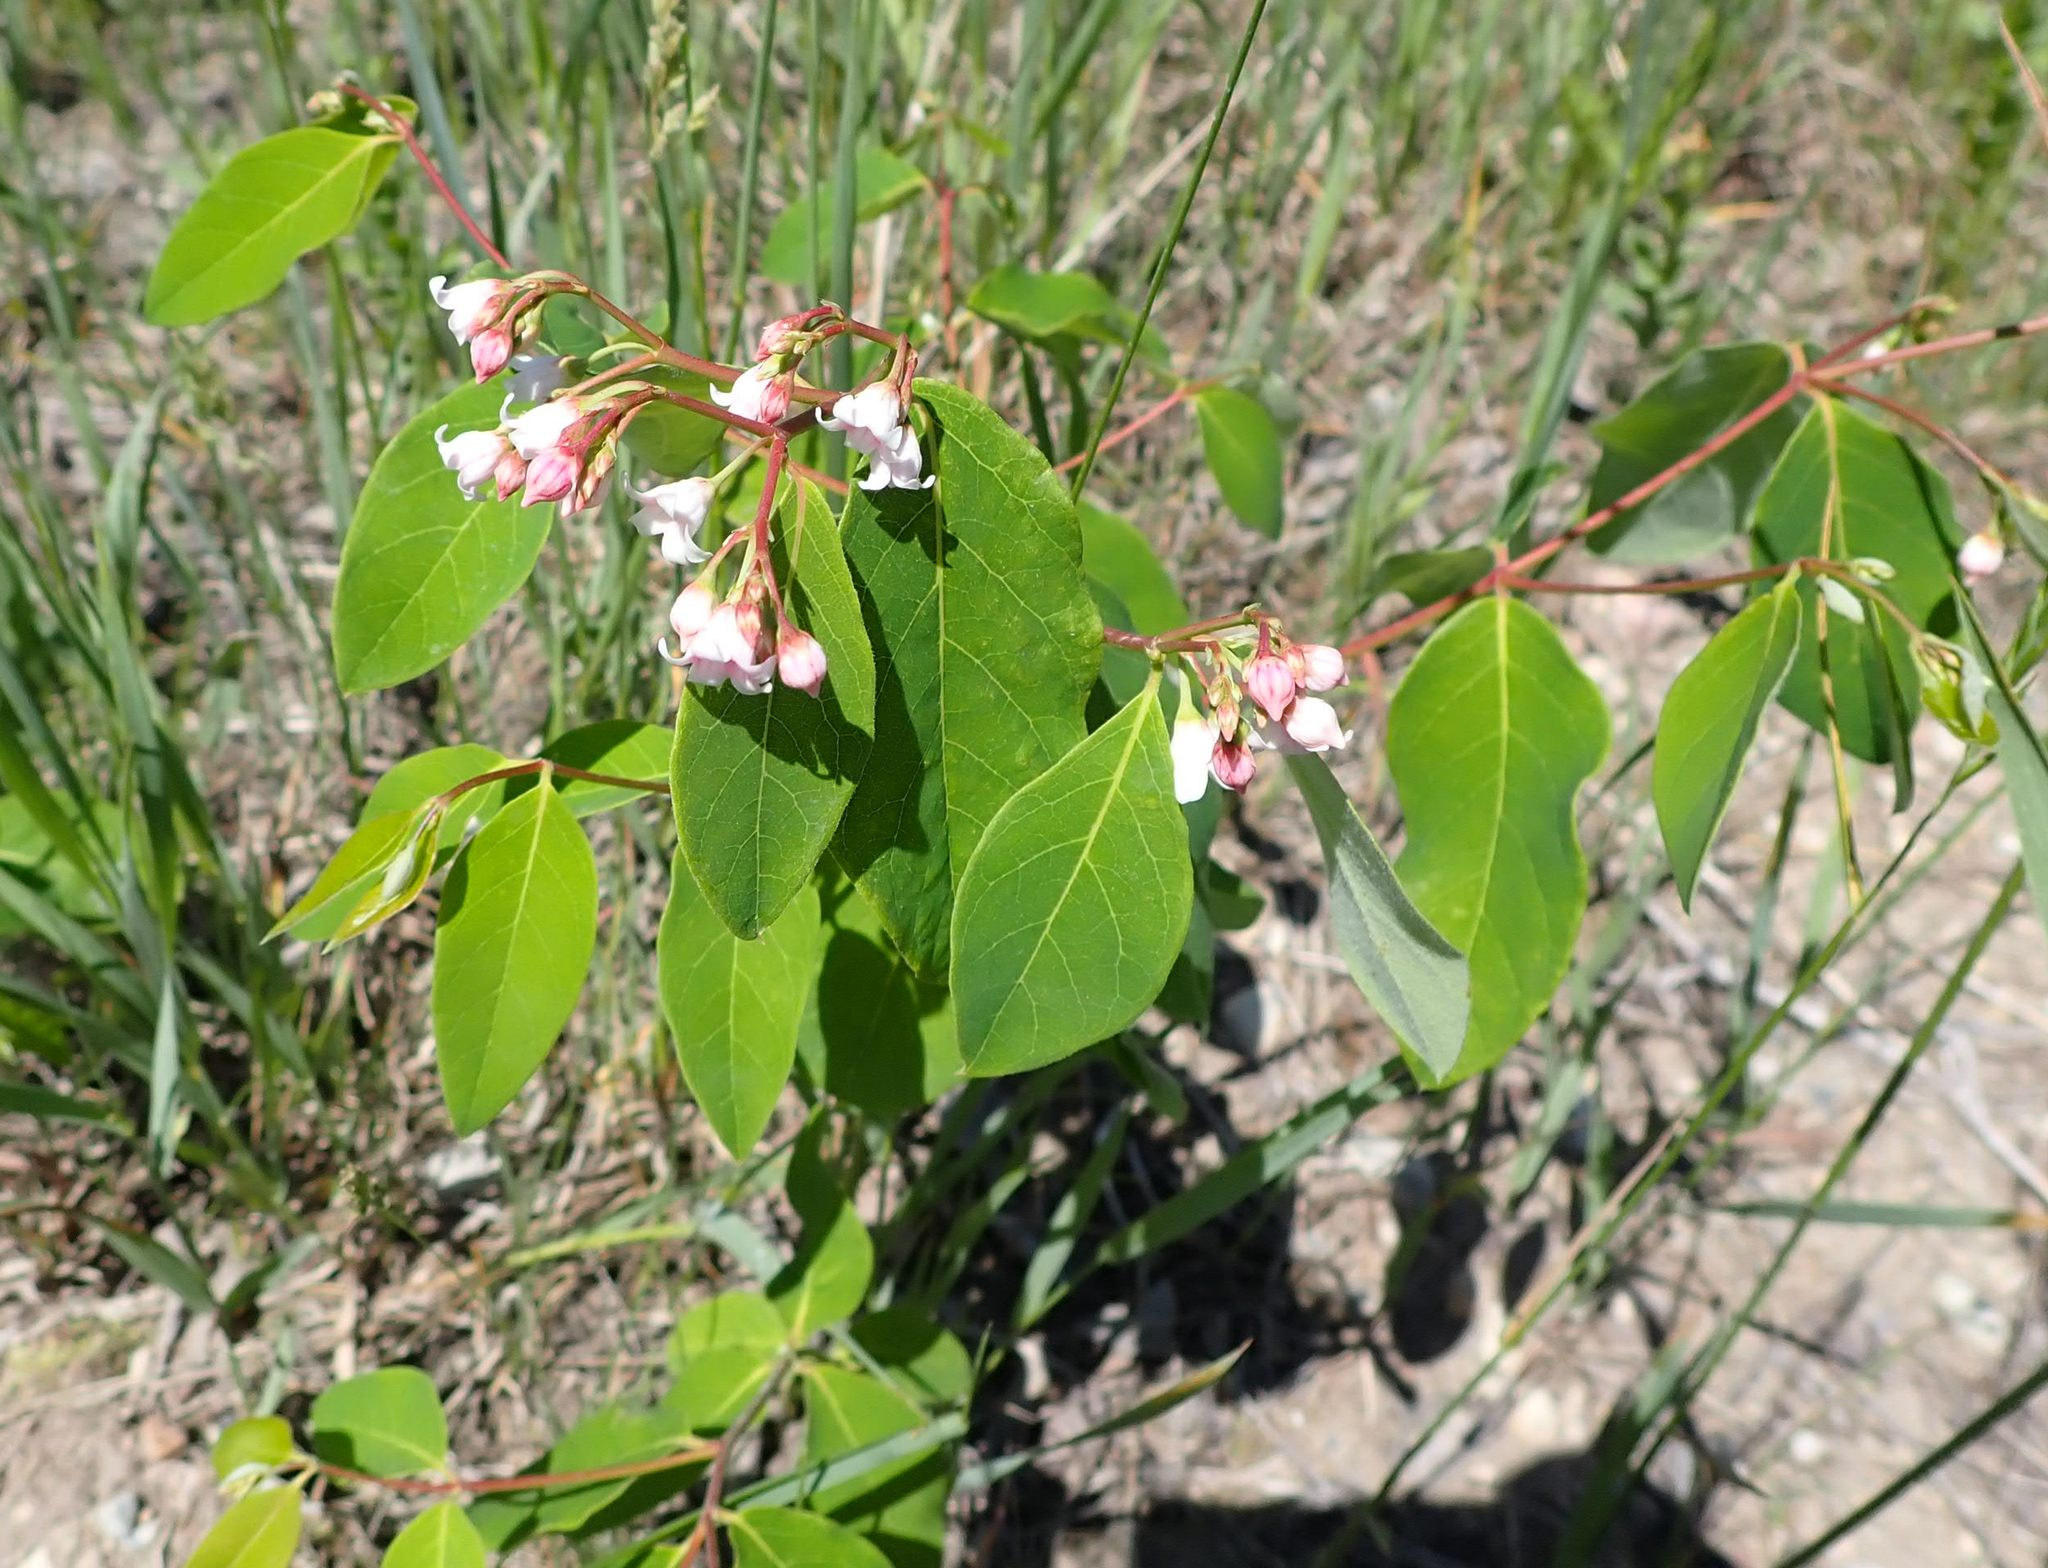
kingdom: Plantae
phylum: Tracheophyta
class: Magnoliopsida
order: Gentianales
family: Apocynaceae
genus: Apocynum
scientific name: Apocynum androsaemifolium
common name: Spreading dogbane
